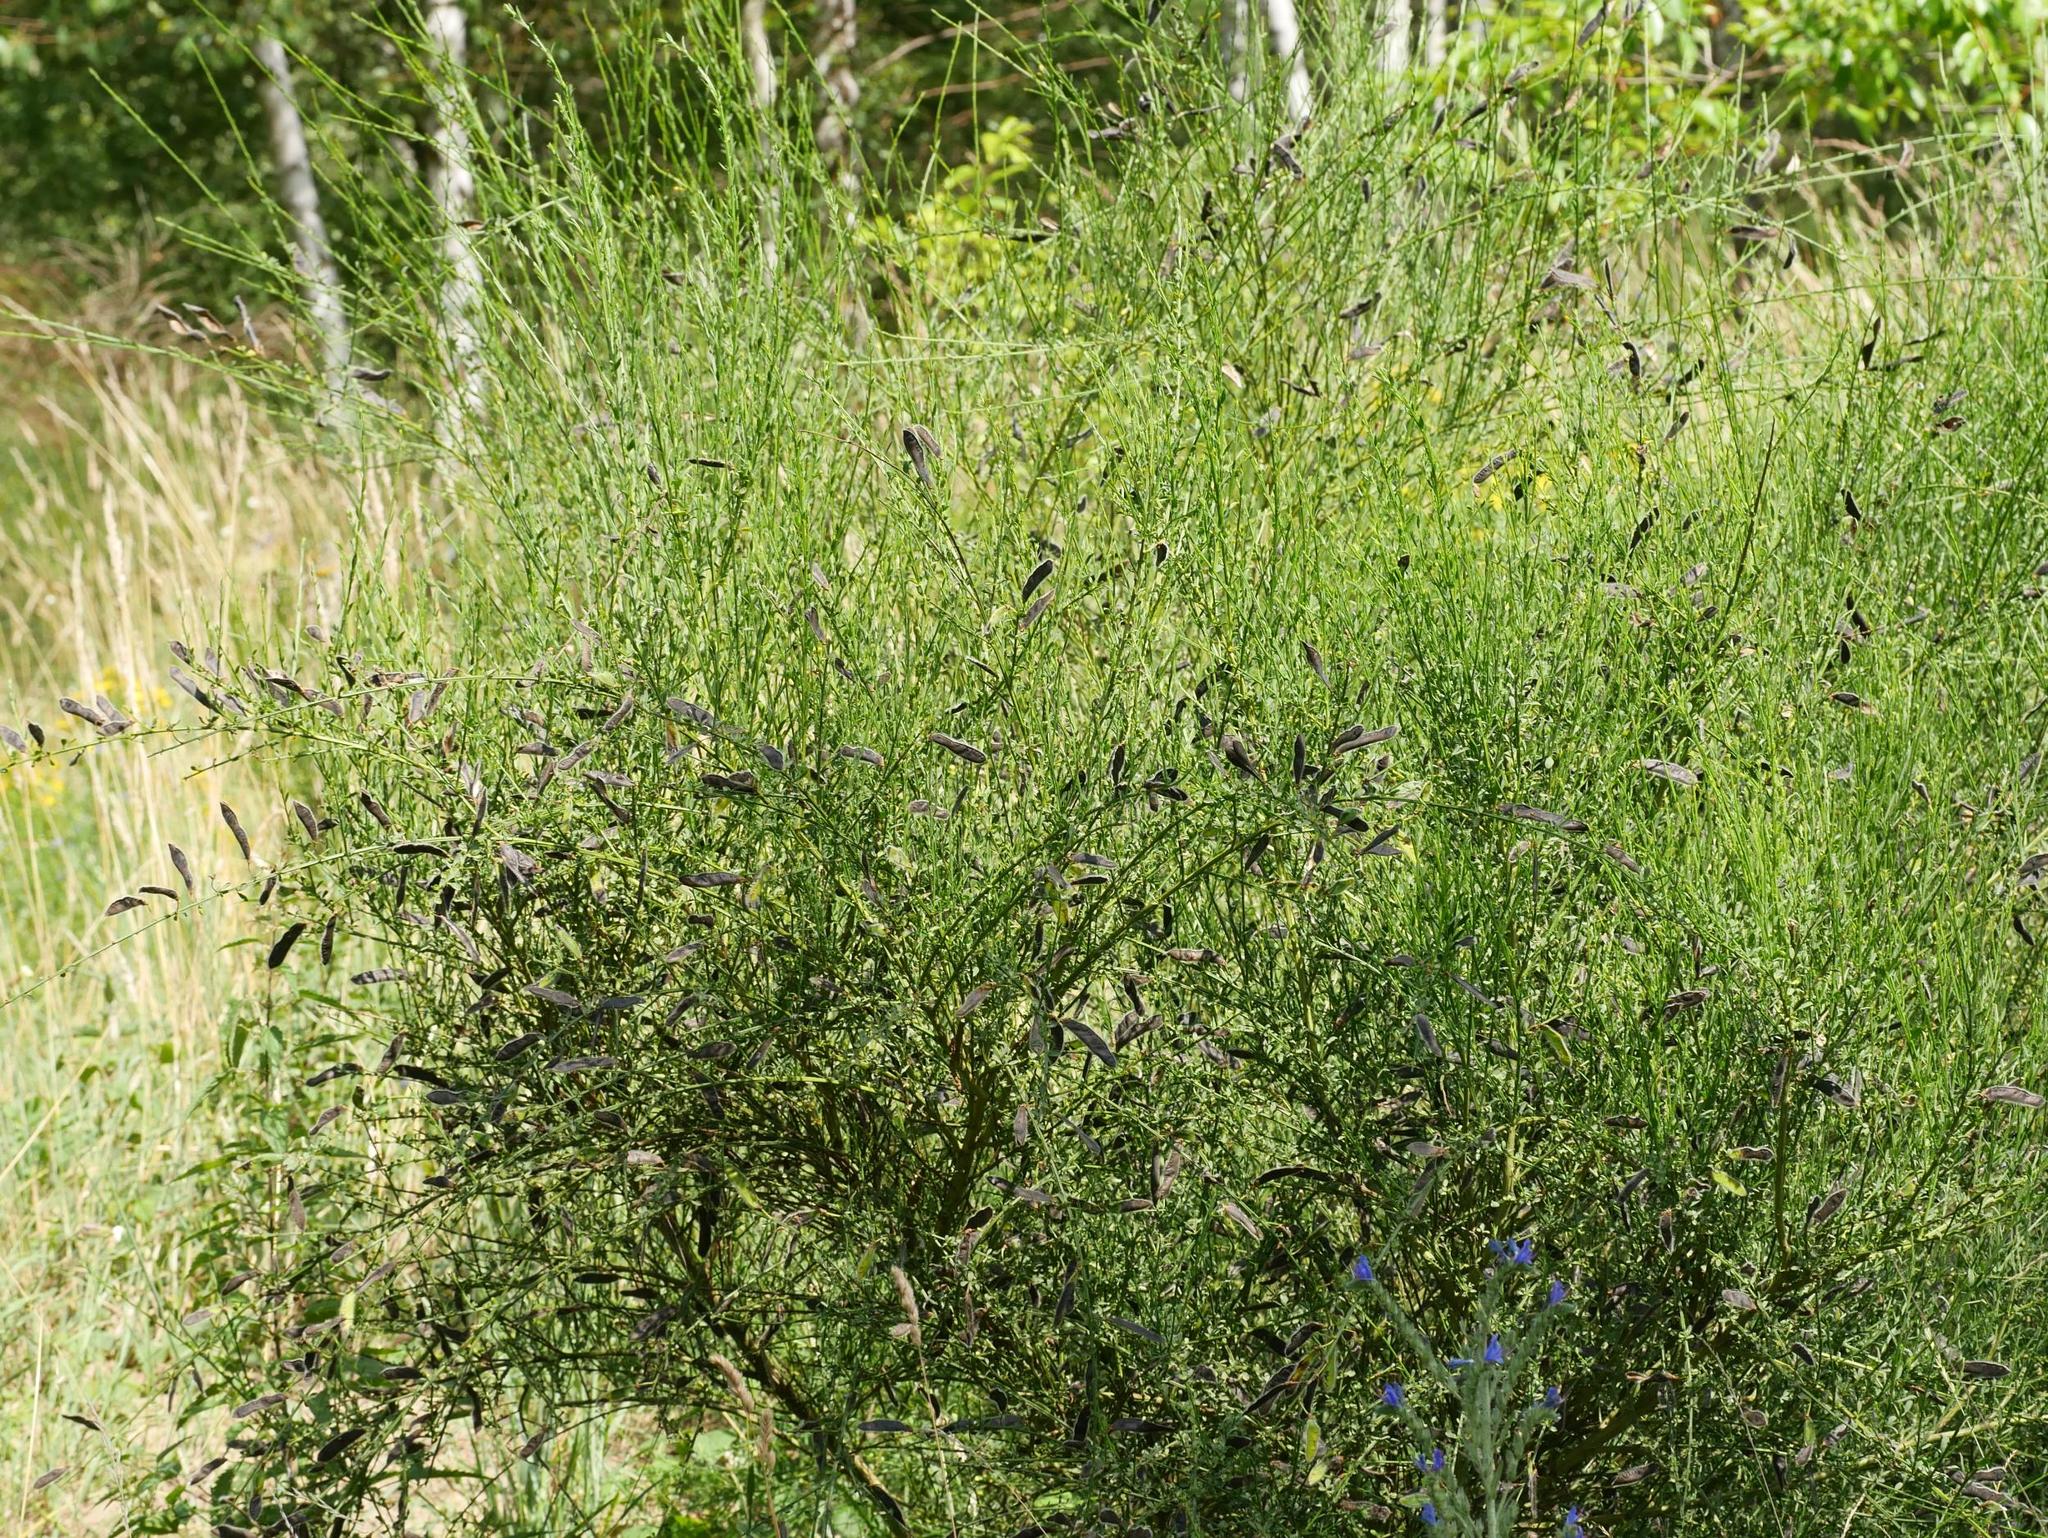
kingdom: Plantae
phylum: Tracheophyta
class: Magnoliopsida
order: Fabales
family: Fabaceae
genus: Cytisus
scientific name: Cytisus scoparius
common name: Scotch broom
